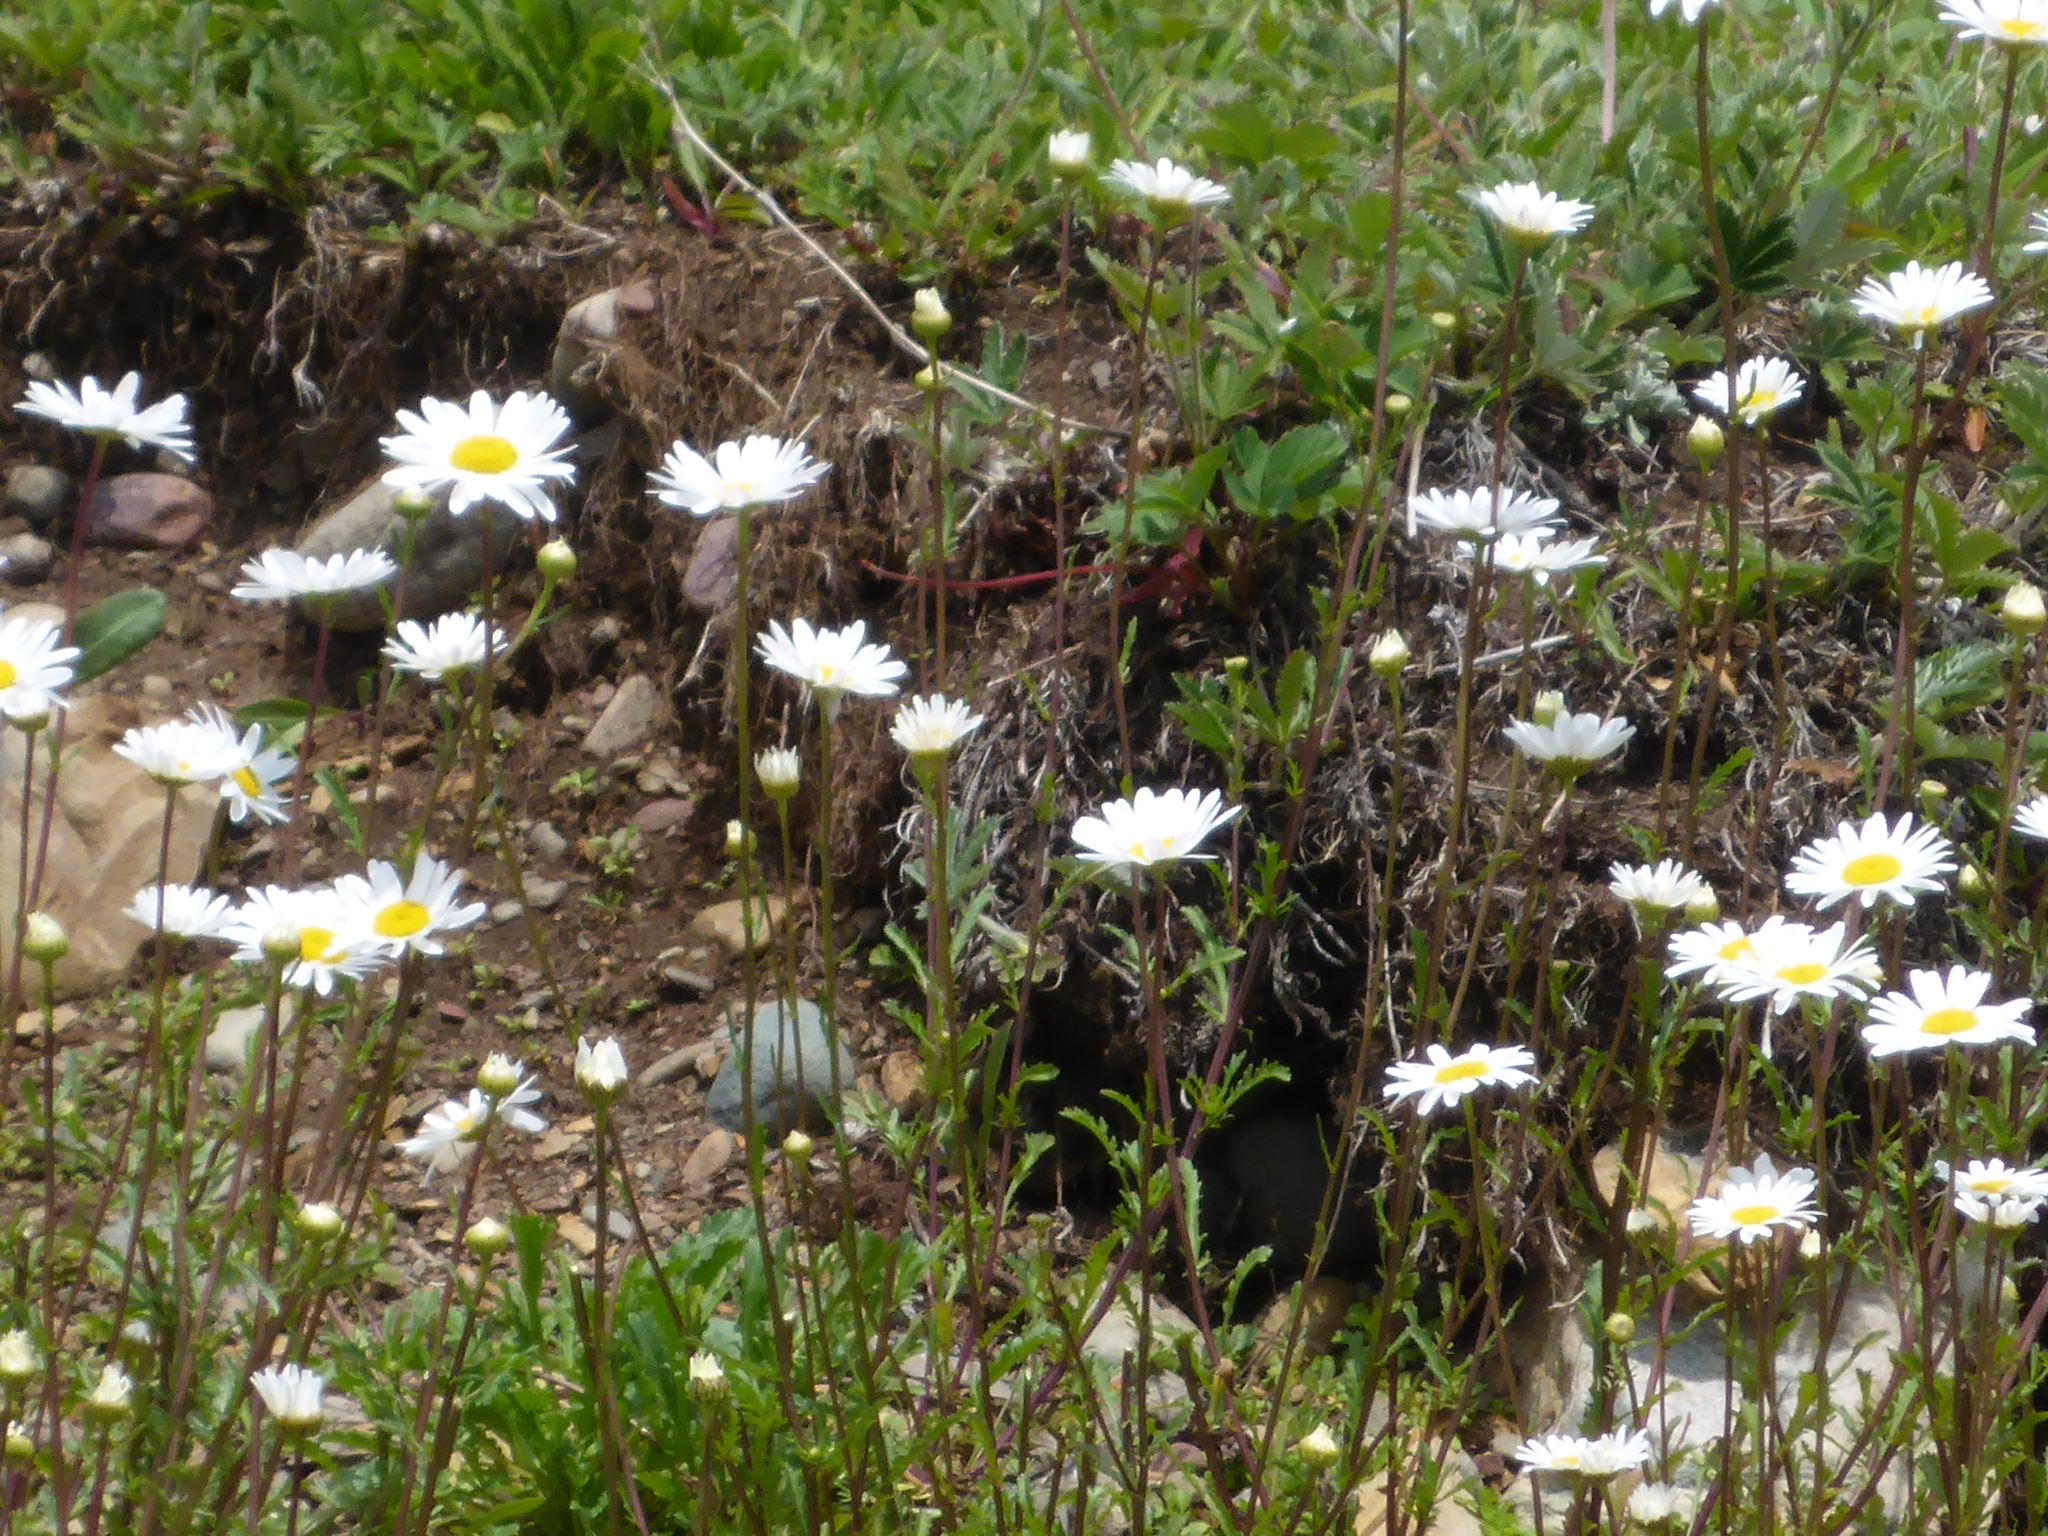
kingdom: Plantae
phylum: Tracheophyta
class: Magnoliopsida
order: Asterales
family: Asteraceae
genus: Leucanthemum
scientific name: Leucanthemum vulgare
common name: Oxeye daisy
